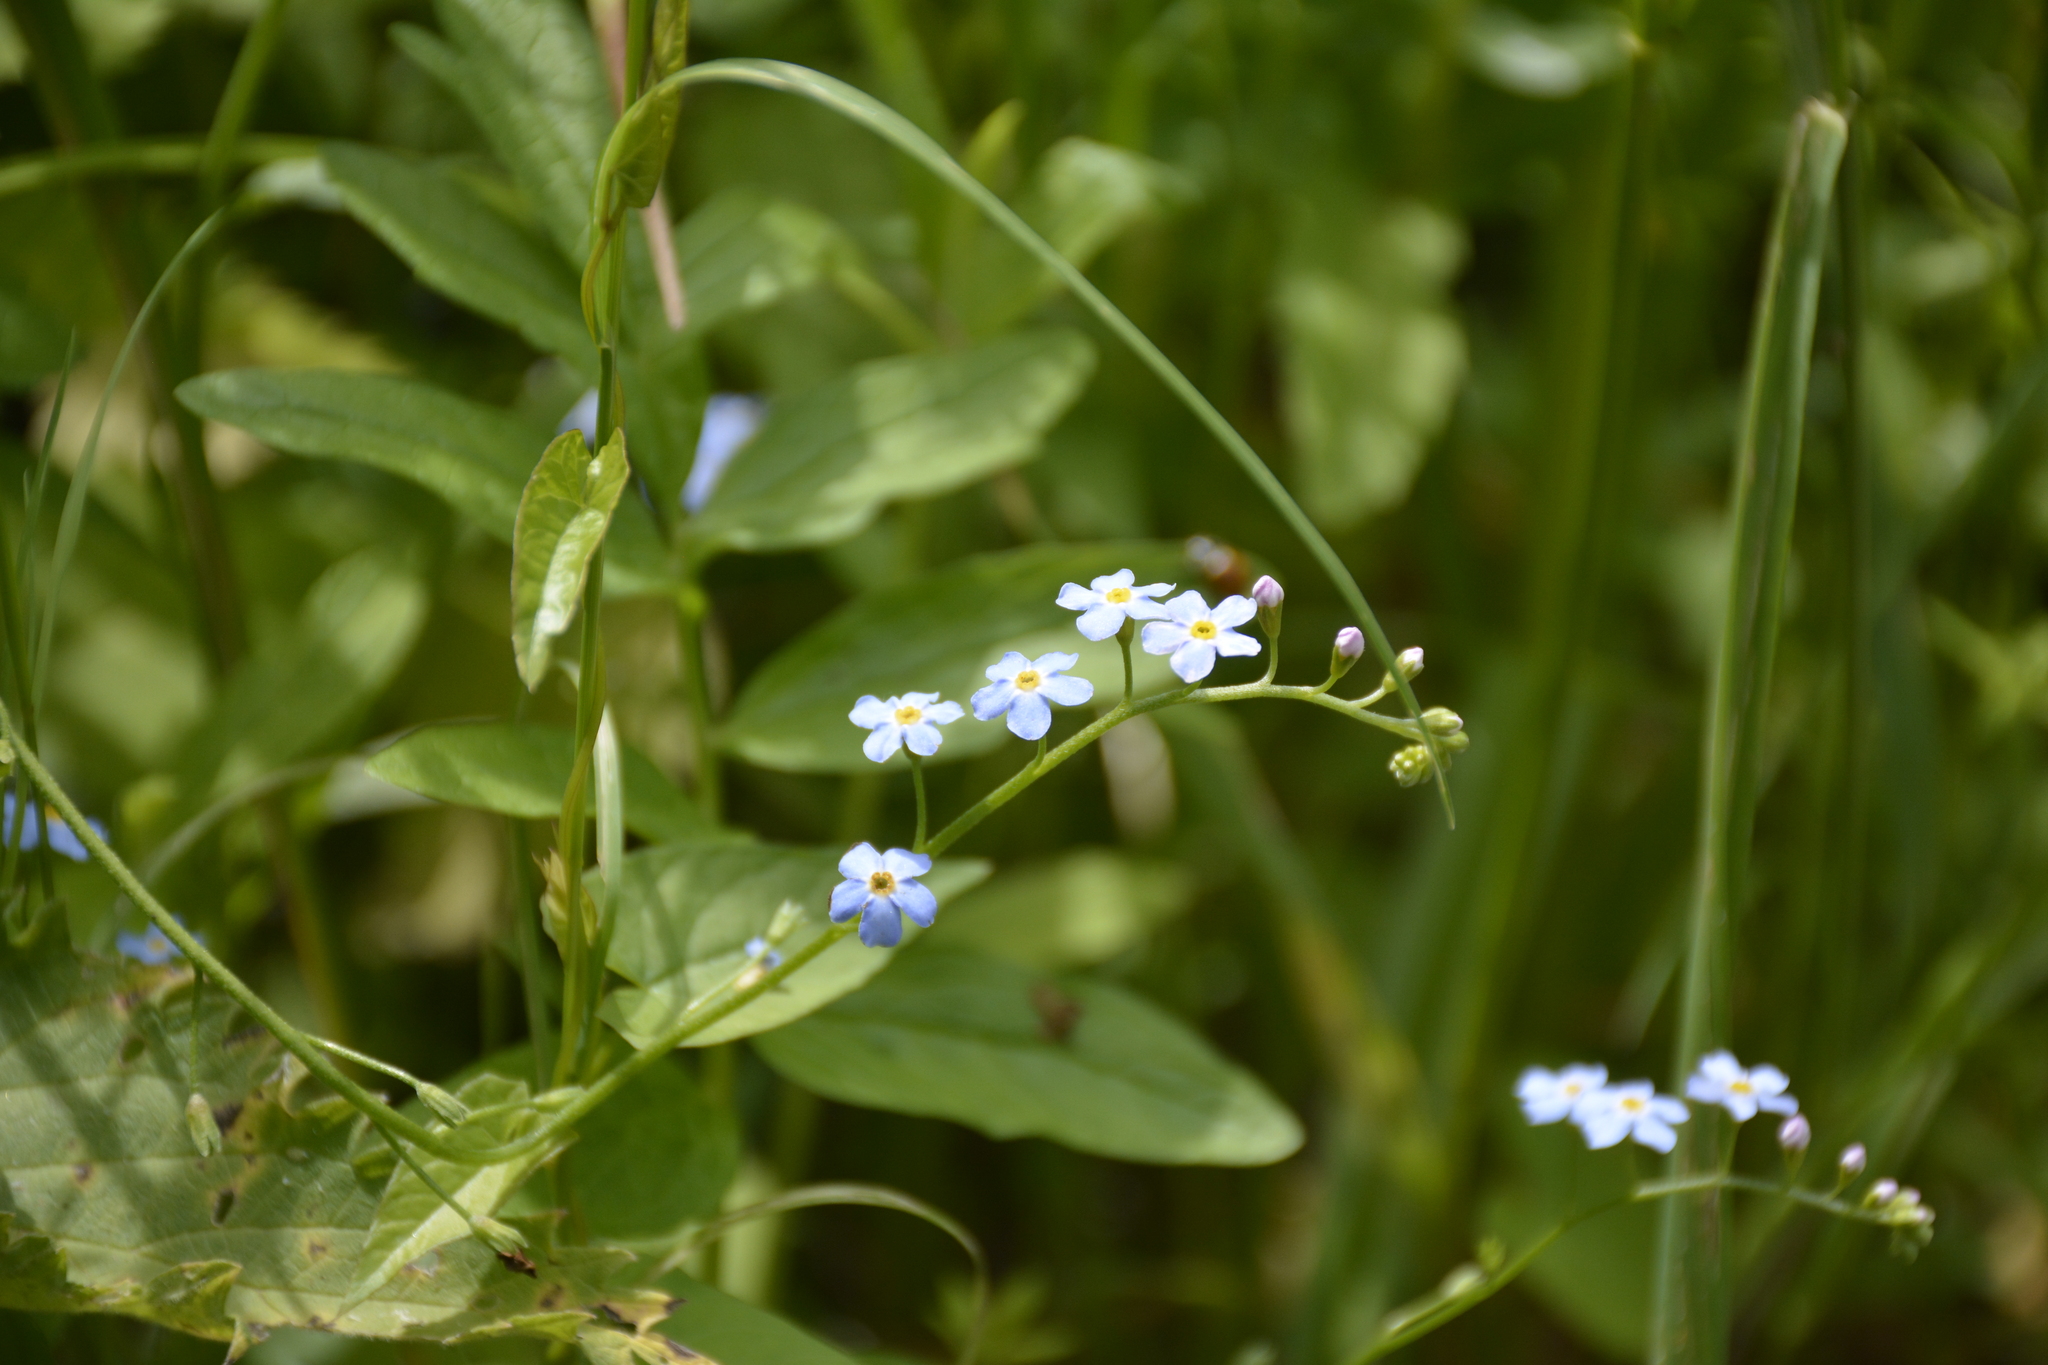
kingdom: Plantae
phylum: Tracheophyta
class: Magnoliopsida
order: Boraginales
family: Boraginaceae
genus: Myosotis
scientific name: Myosotis scorpioides
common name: Water forget-me-not
